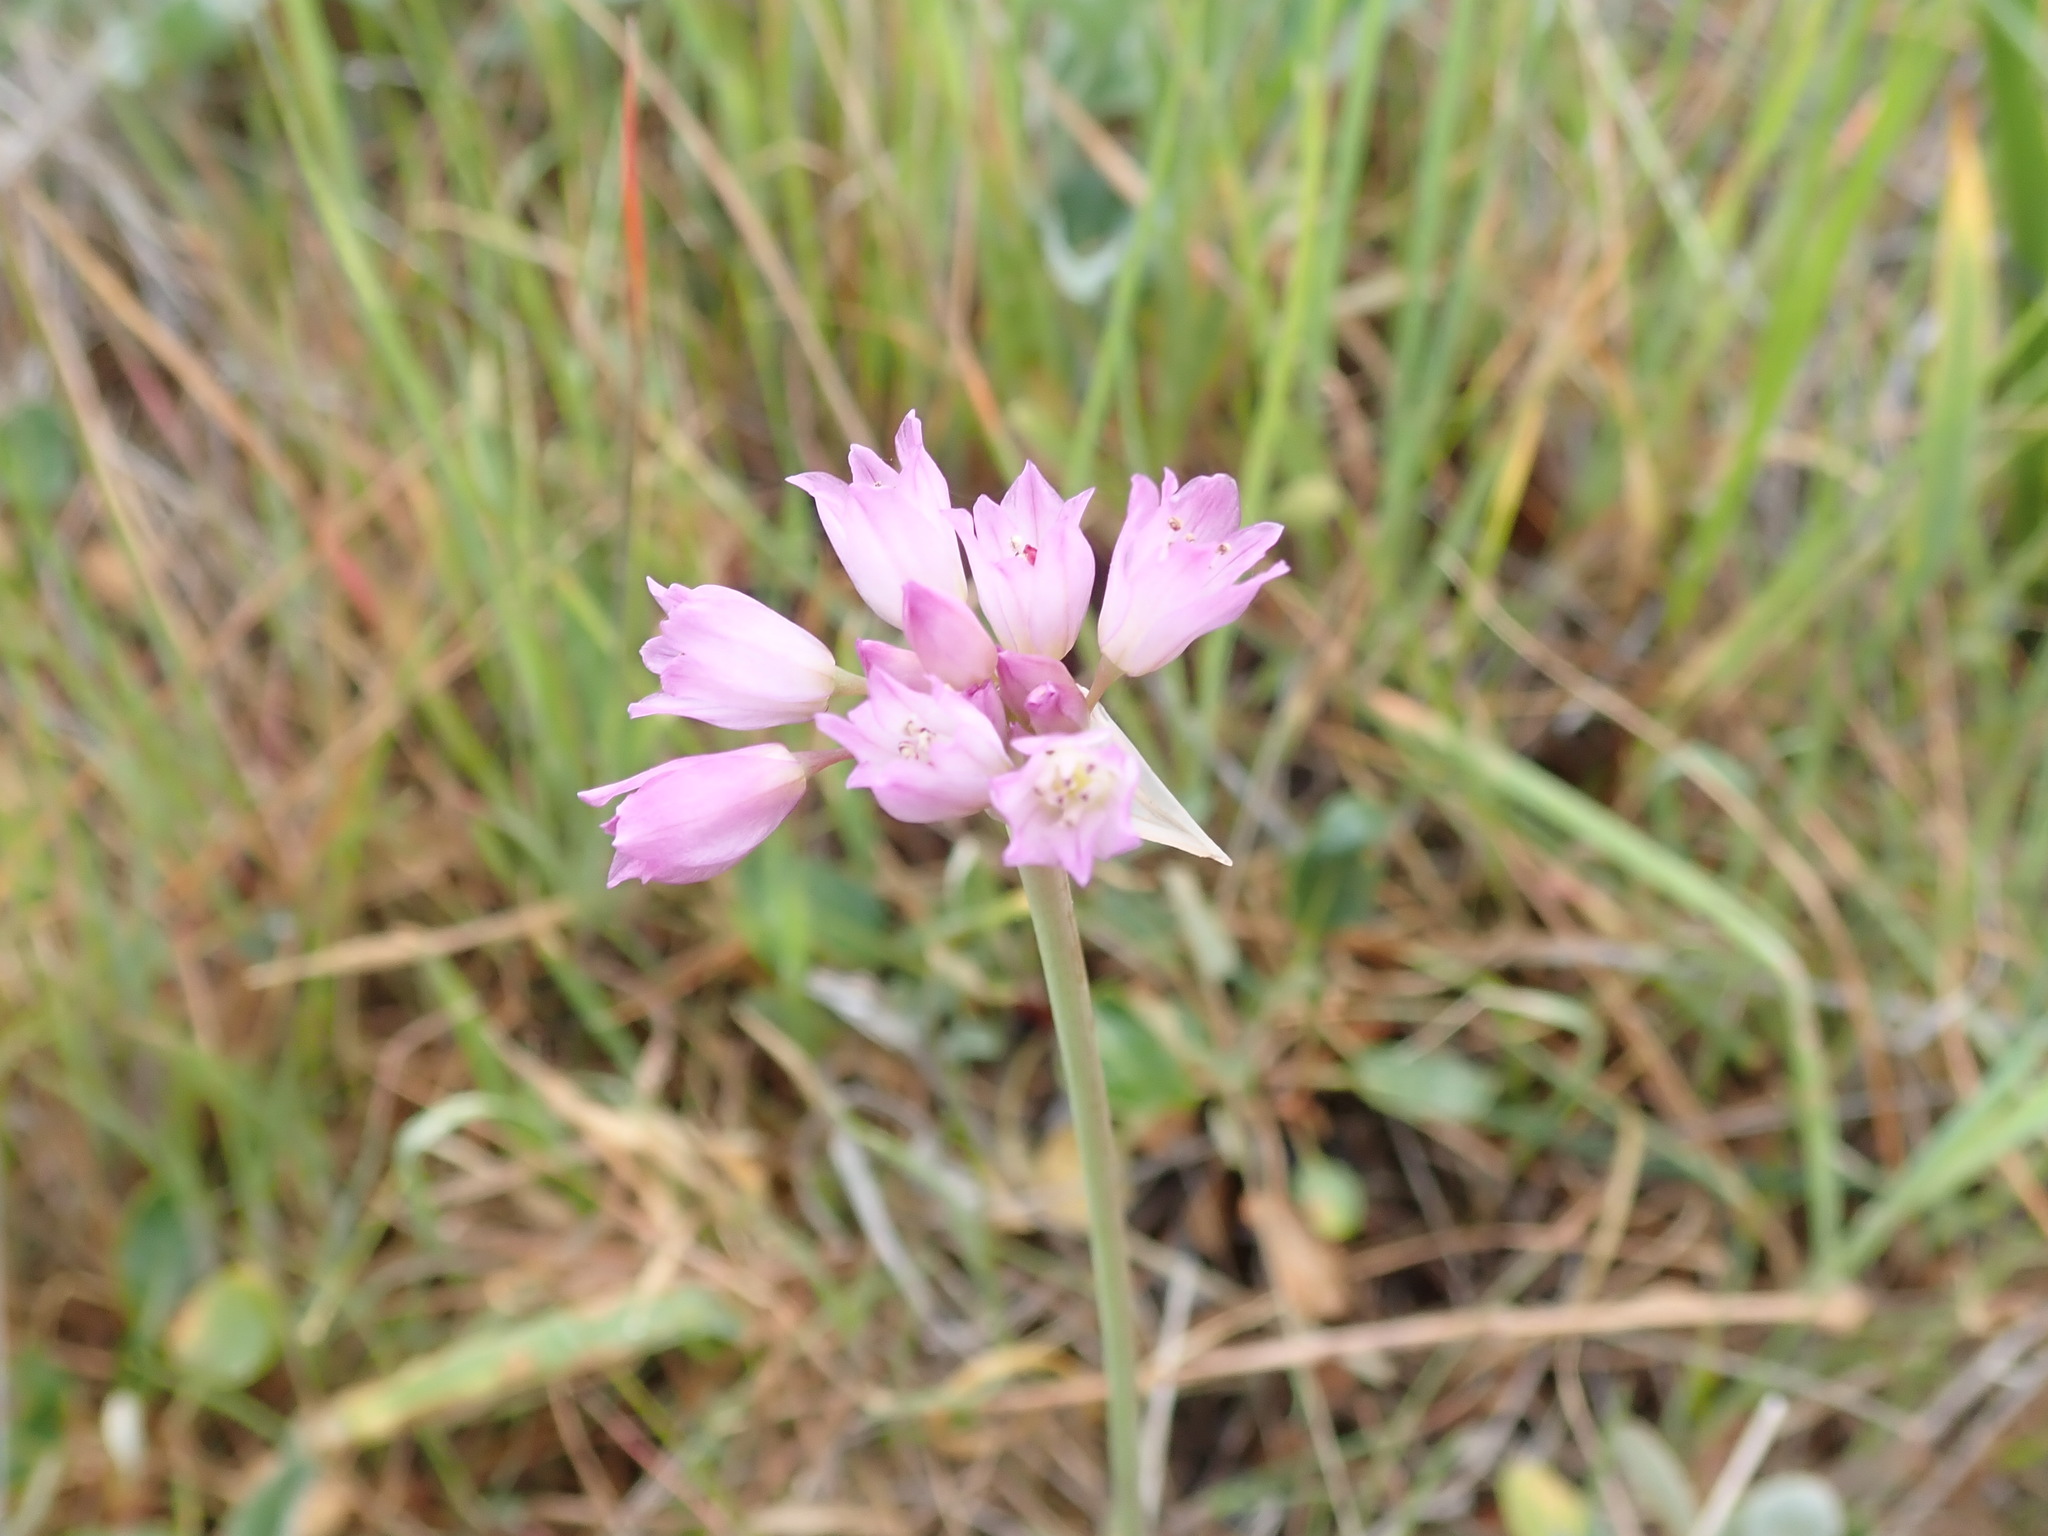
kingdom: Plantae
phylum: Tracheophyta
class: Liliopsida
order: Asparagales
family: Amaryllidaceae
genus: Allium
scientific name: Allium serra
